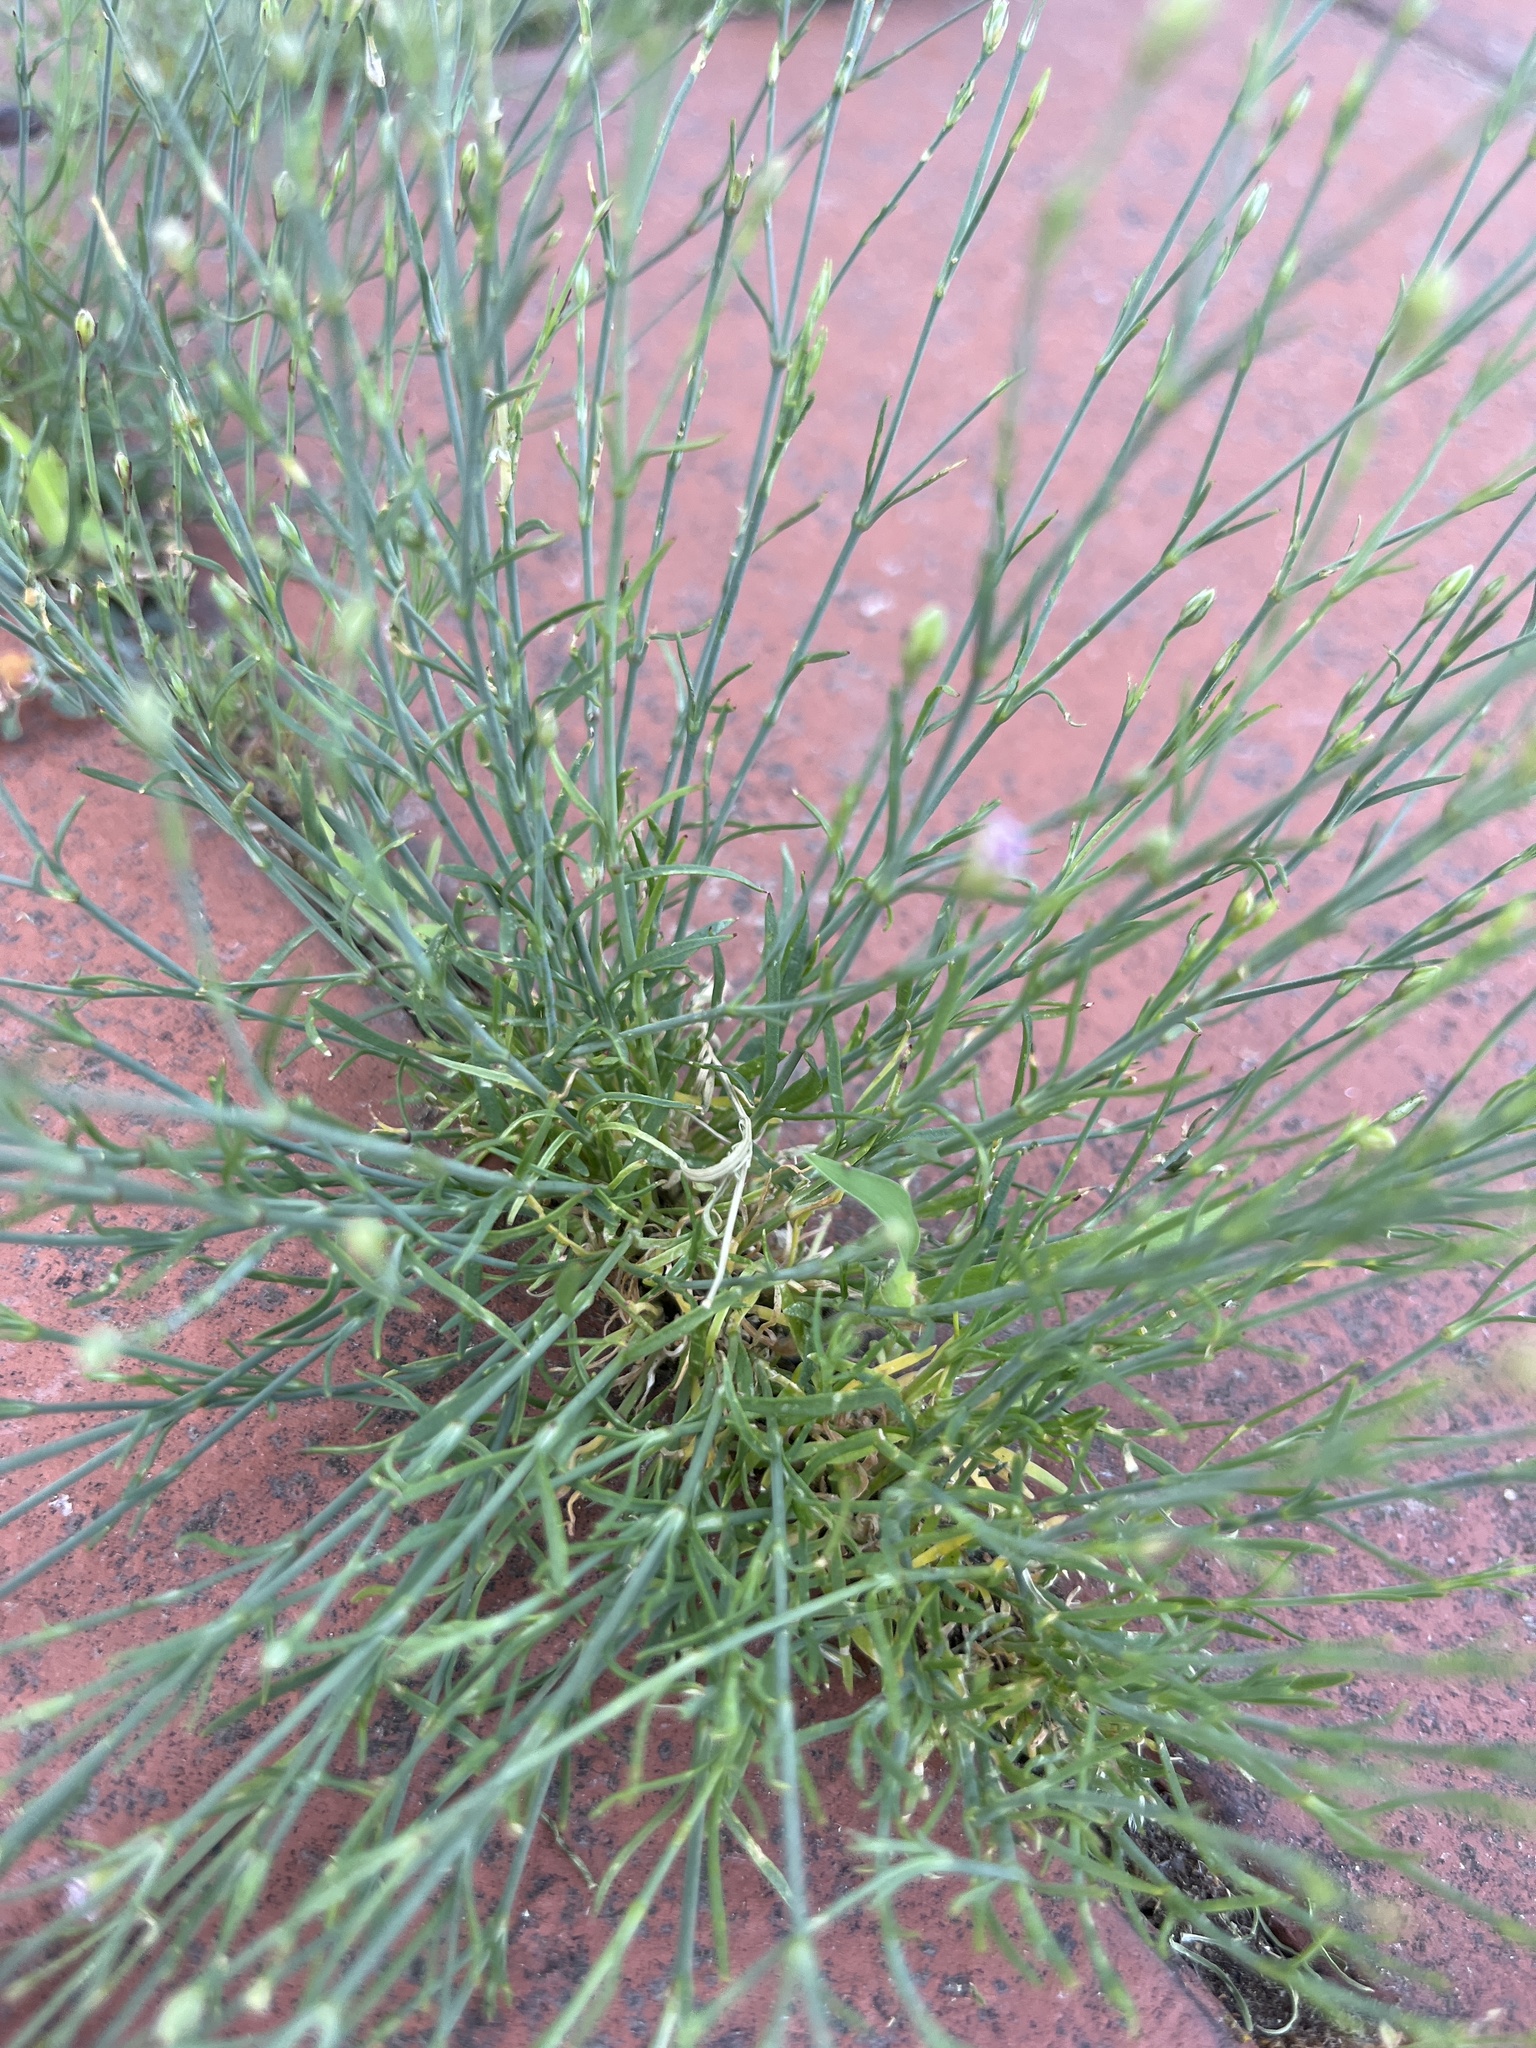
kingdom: Plantae
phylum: Tracheophyta
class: Magnoliopsida
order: Caryophyllales
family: Caryophyllaceae
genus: Petrorhagia
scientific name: Petrorhagia saxifraga
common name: Tunicflower
